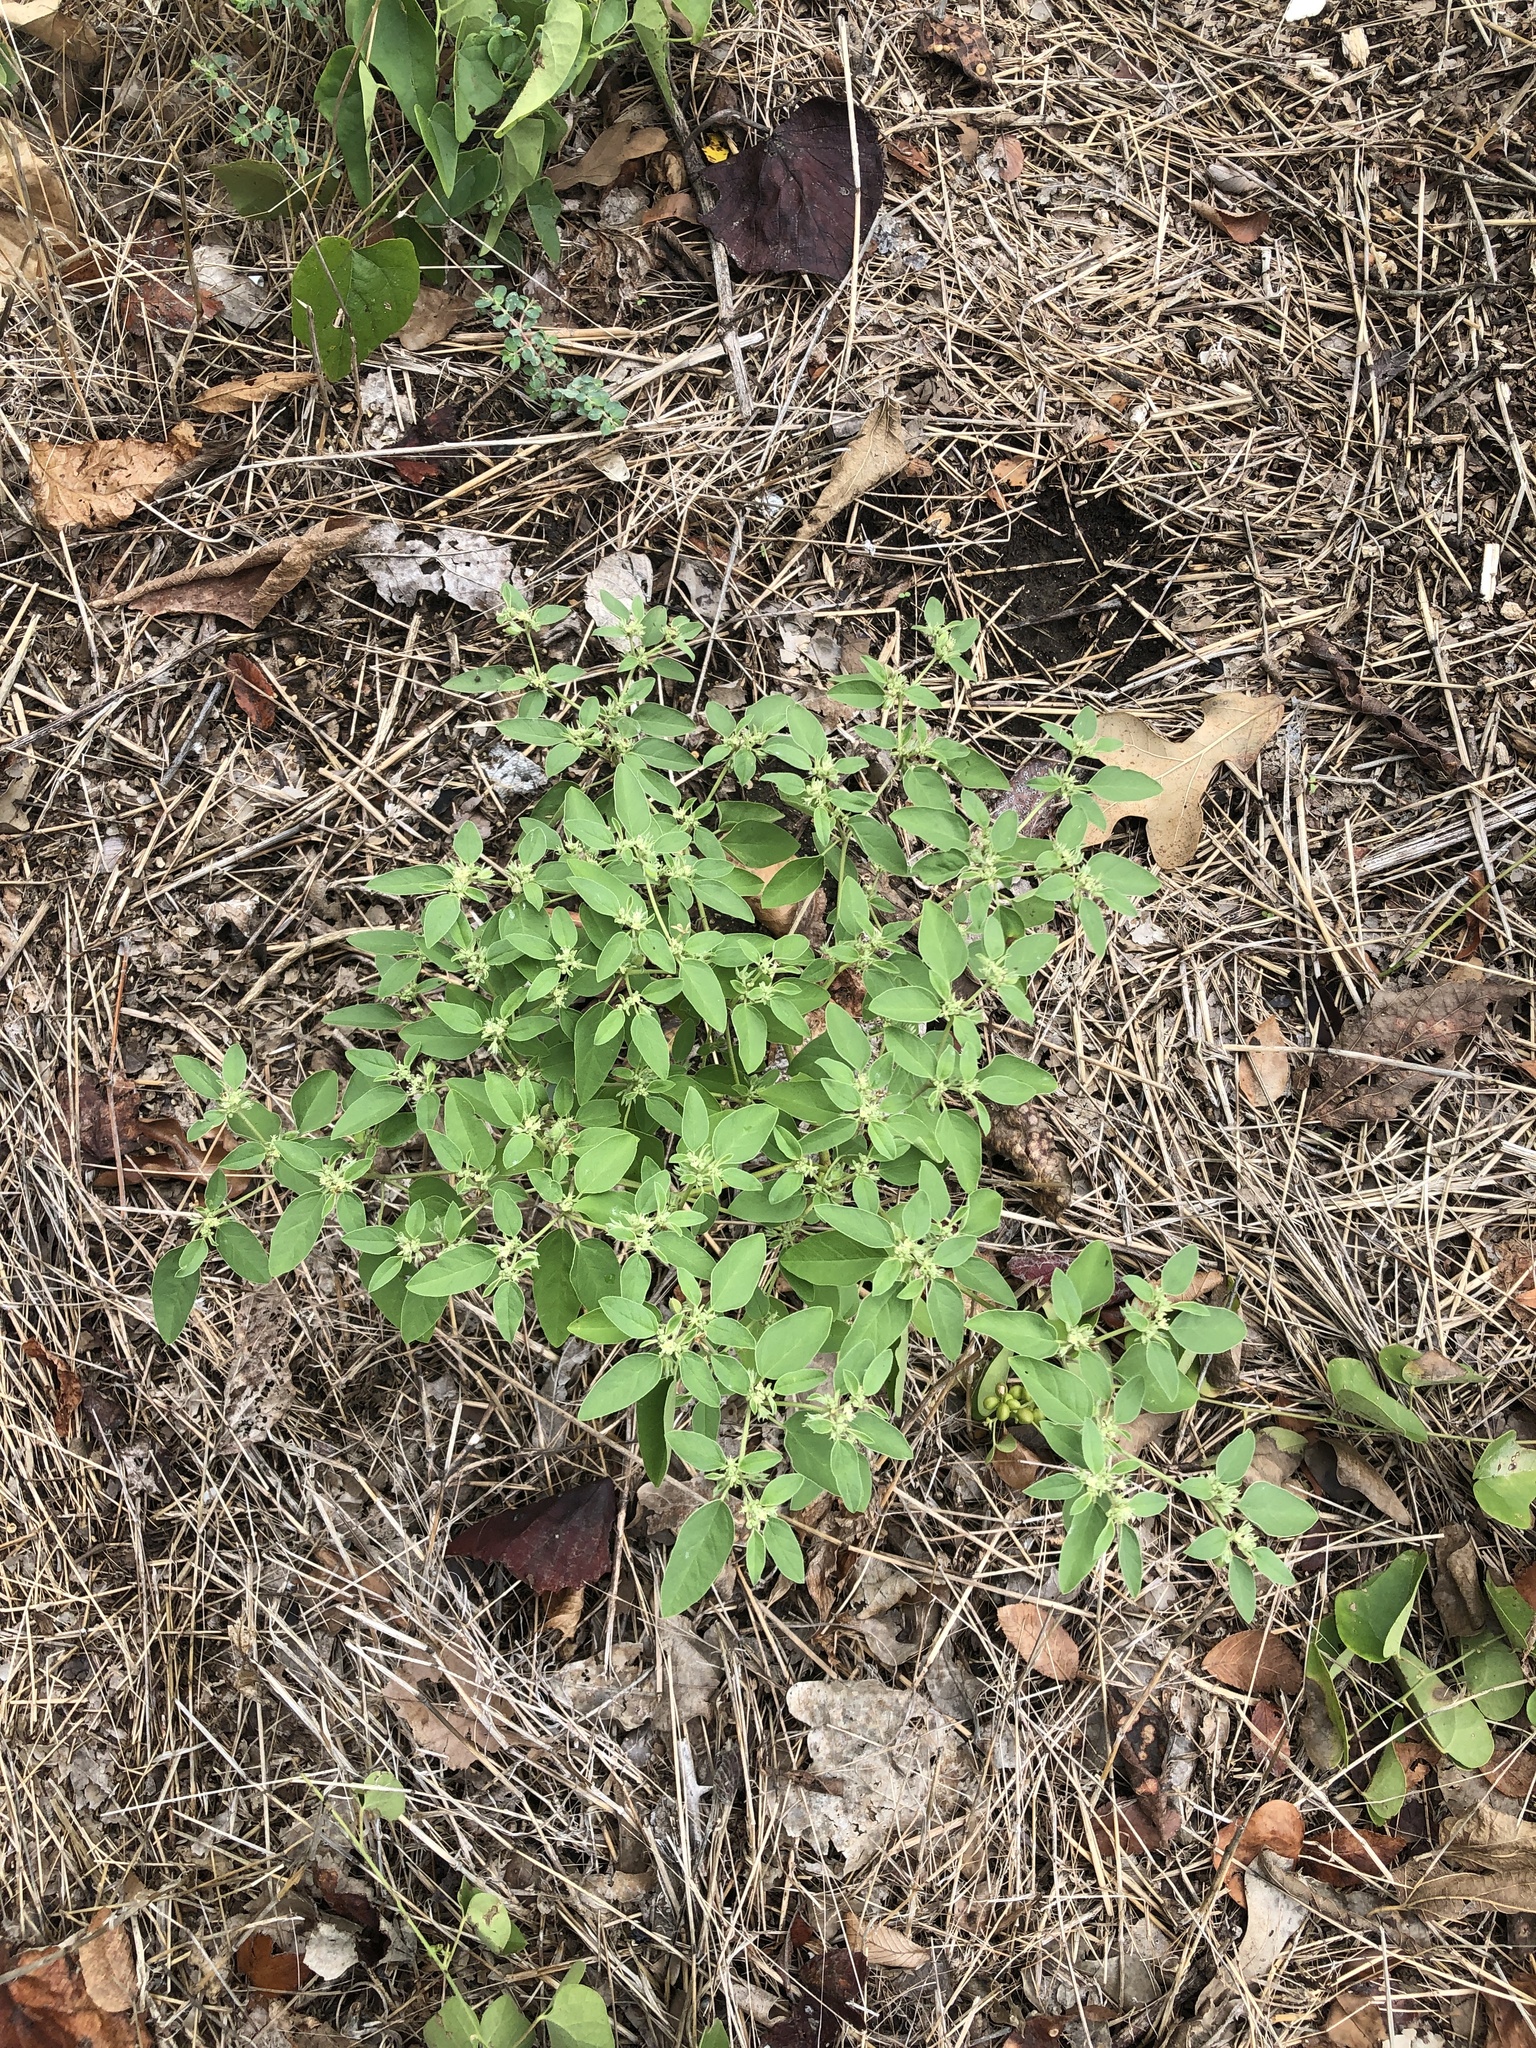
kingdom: Plantae
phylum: Tracheophyta
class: Magnoliopsida
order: Malpighiales
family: Euphorbiaceae
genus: Croton
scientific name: Croton monanthogynus
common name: One-seed croton
